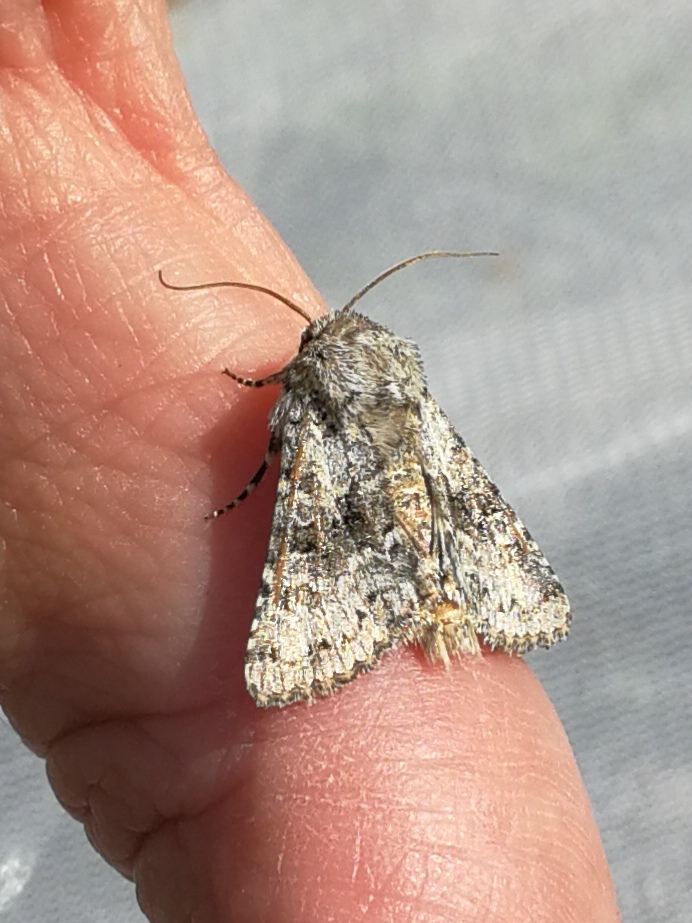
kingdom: Animalia
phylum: Arthropoda
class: Insecta
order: Lepidoptera
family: Noctuidae
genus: Hecatera
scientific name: Hecatera weissi
